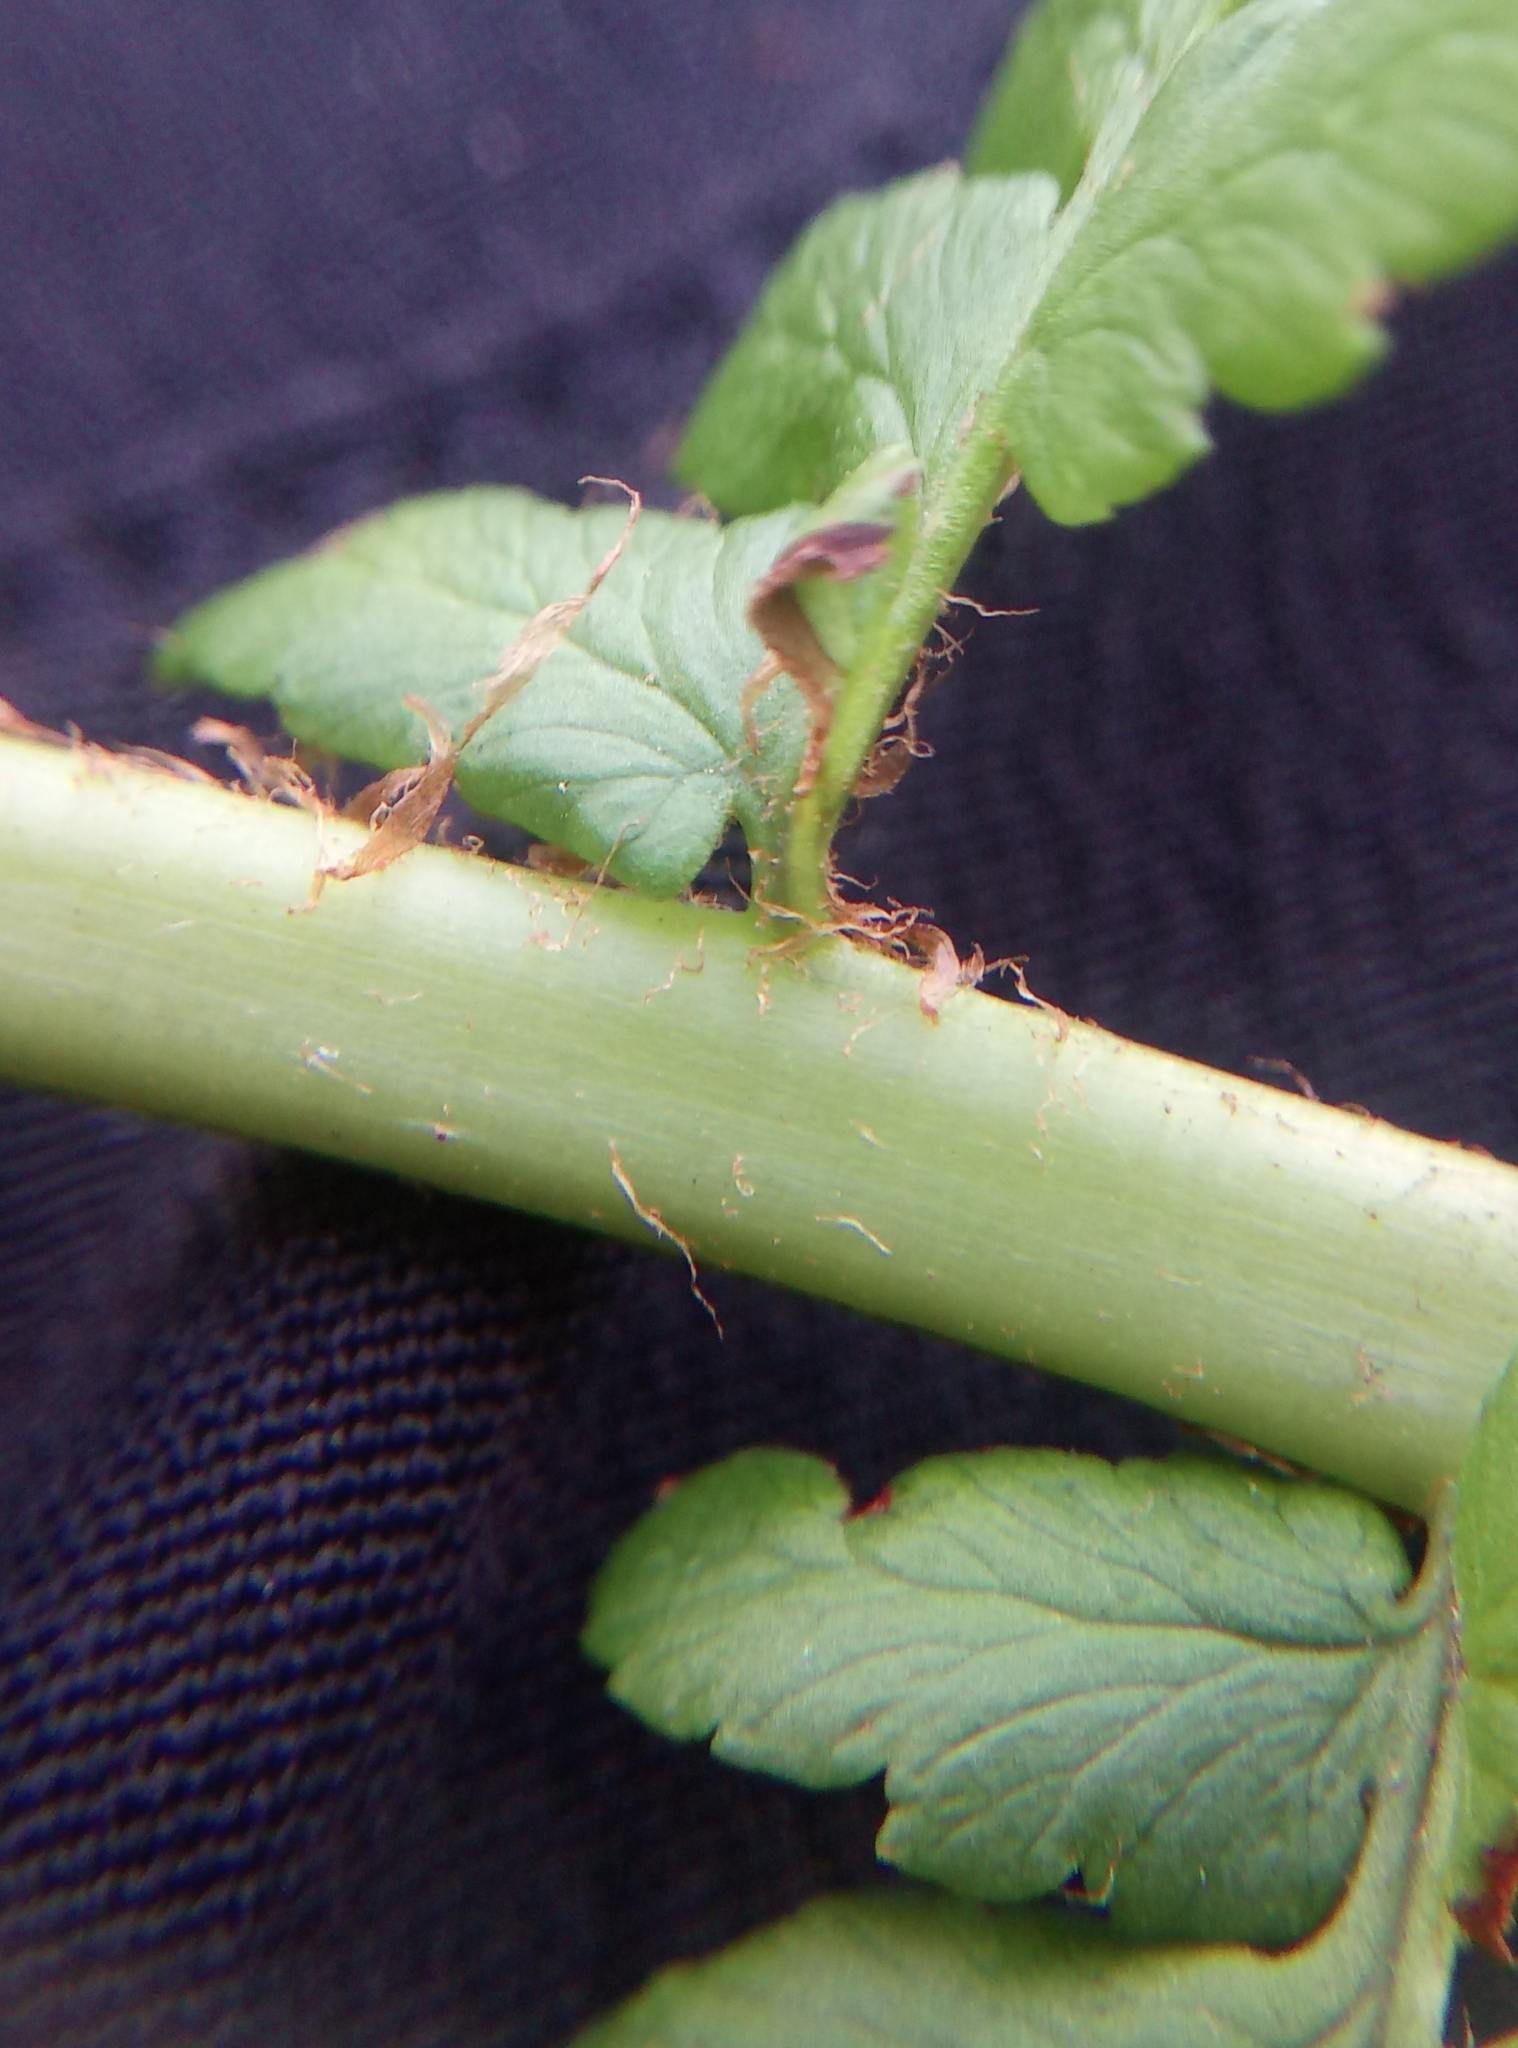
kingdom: Plantae
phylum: Tracheophyta
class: Polypodiopsida
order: Polypodiales
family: Dryopteridaceae
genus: Dryopteris
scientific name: Dryopteris filix-mas
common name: Male fern
